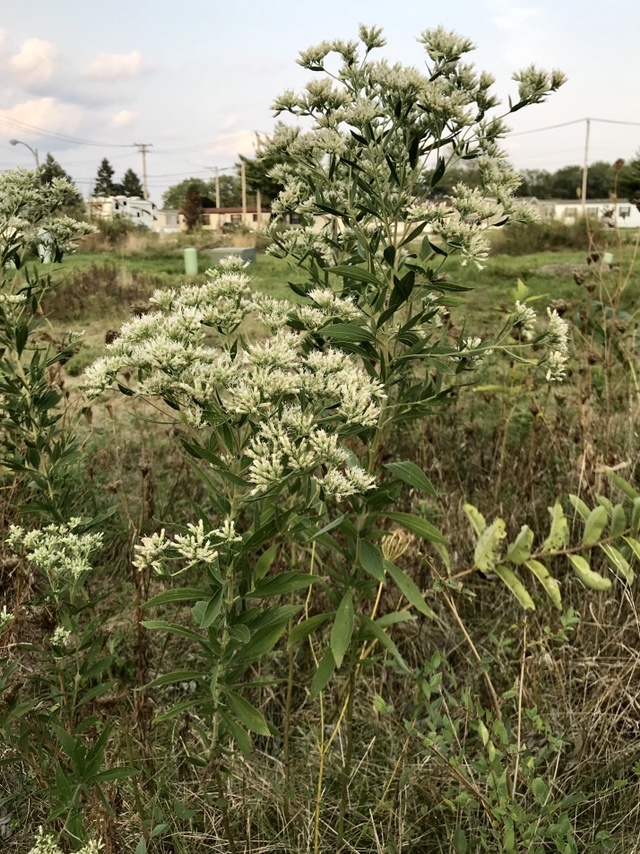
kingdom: Plantae
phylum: Tracheophyta
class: Magnoliopsida
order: Asterales
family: Asteraceae
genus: Eupatorium
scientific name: Eupatorium altissimum
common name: Tall thoroughwort
